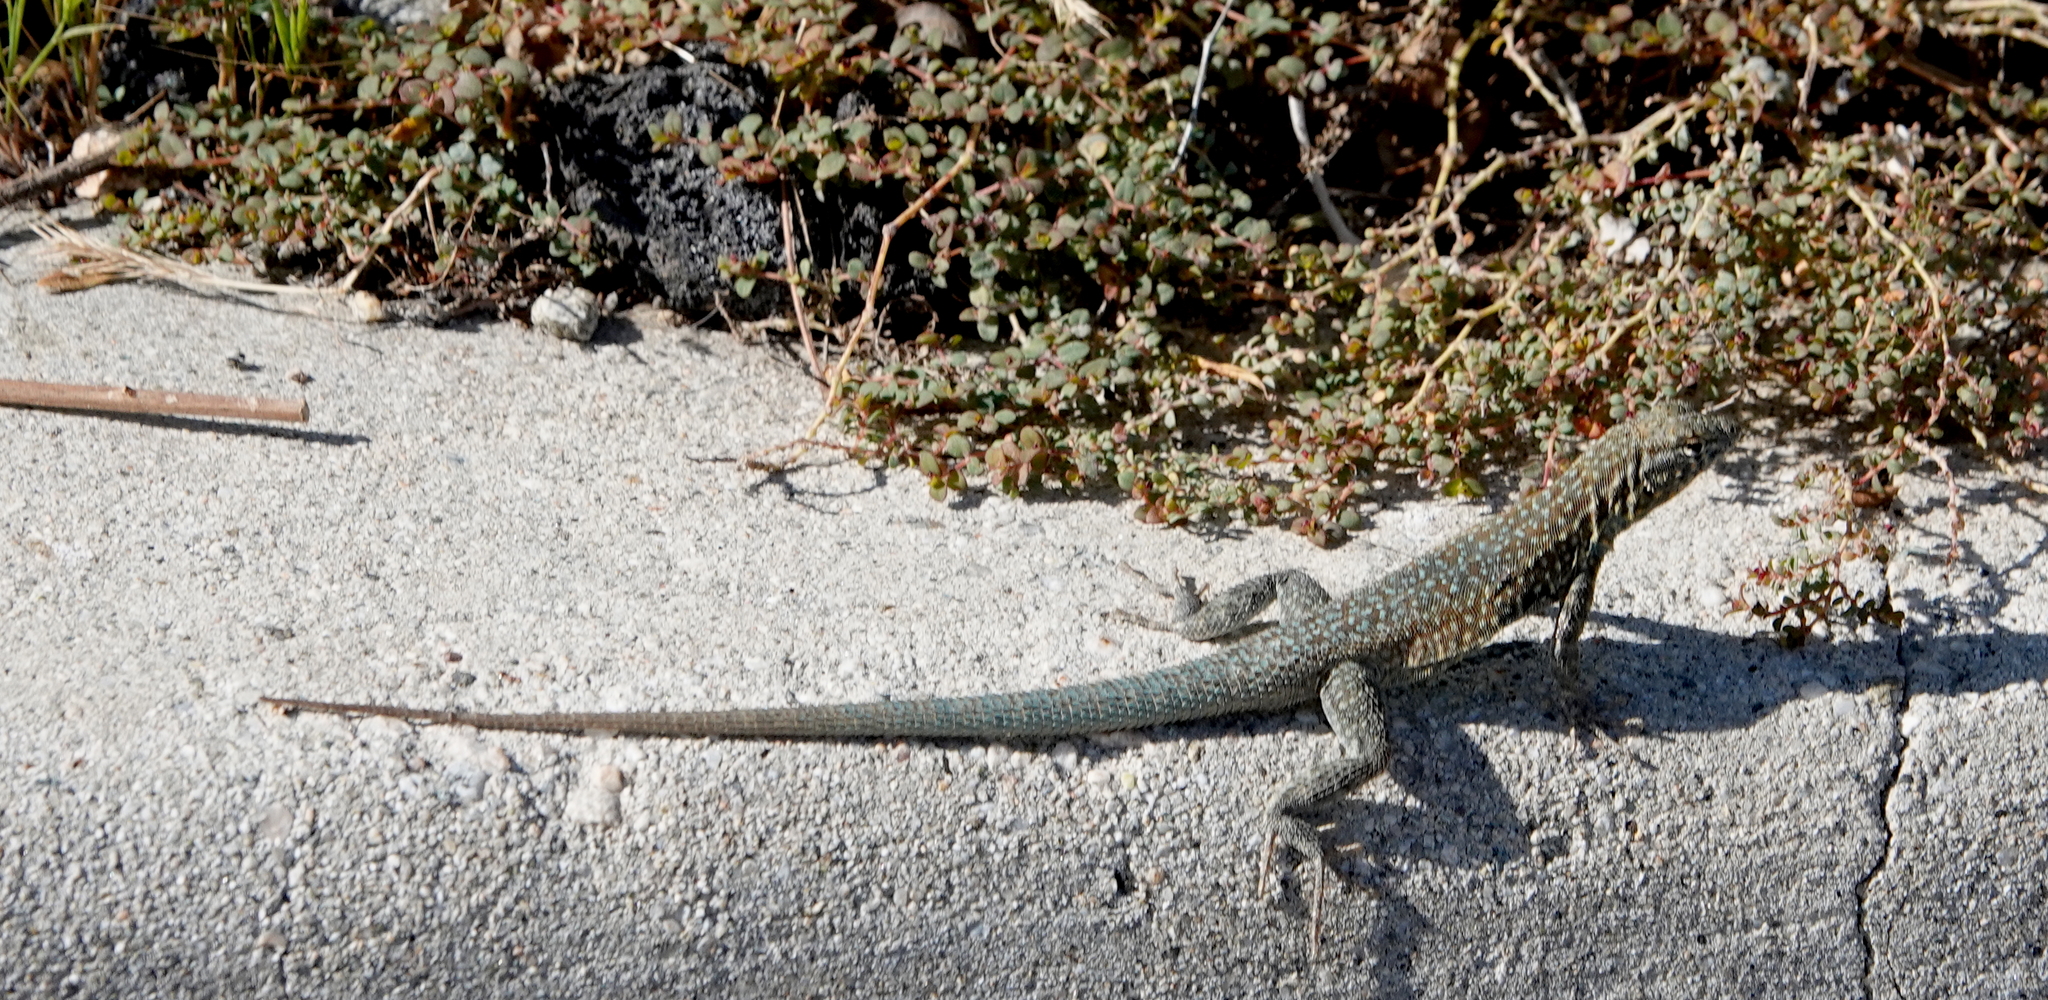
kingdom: Animalia
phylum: Chordata
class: Squamata
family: Phrynosomatidae
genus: Uta
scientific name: Uta stansburiana
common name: Side-blotched lizard
